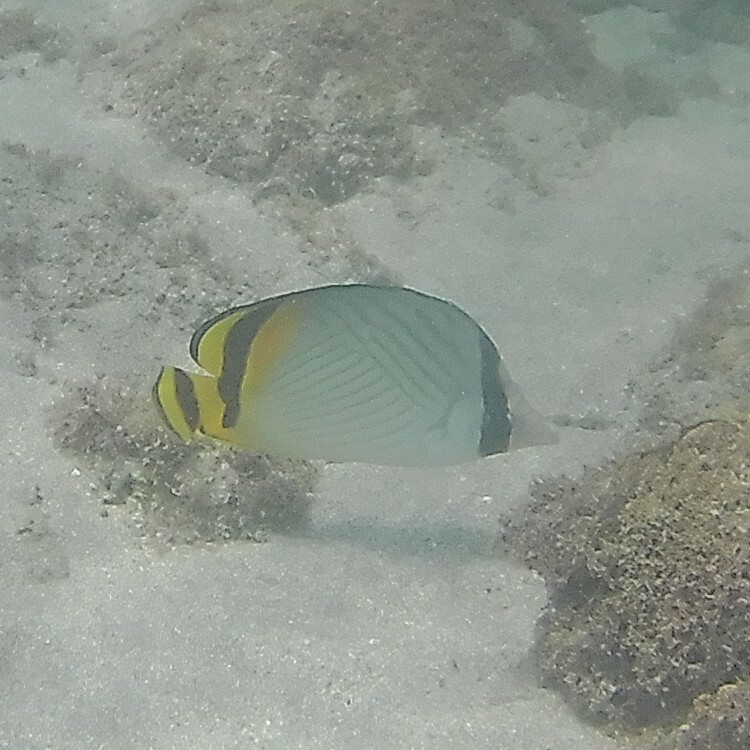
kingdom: Animalia
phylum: Chordata
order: Perciformes
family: Chaetodontidae
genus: Chaetodon
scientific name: Chaetodon vagabundus
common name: Vagabond butterflyfish
